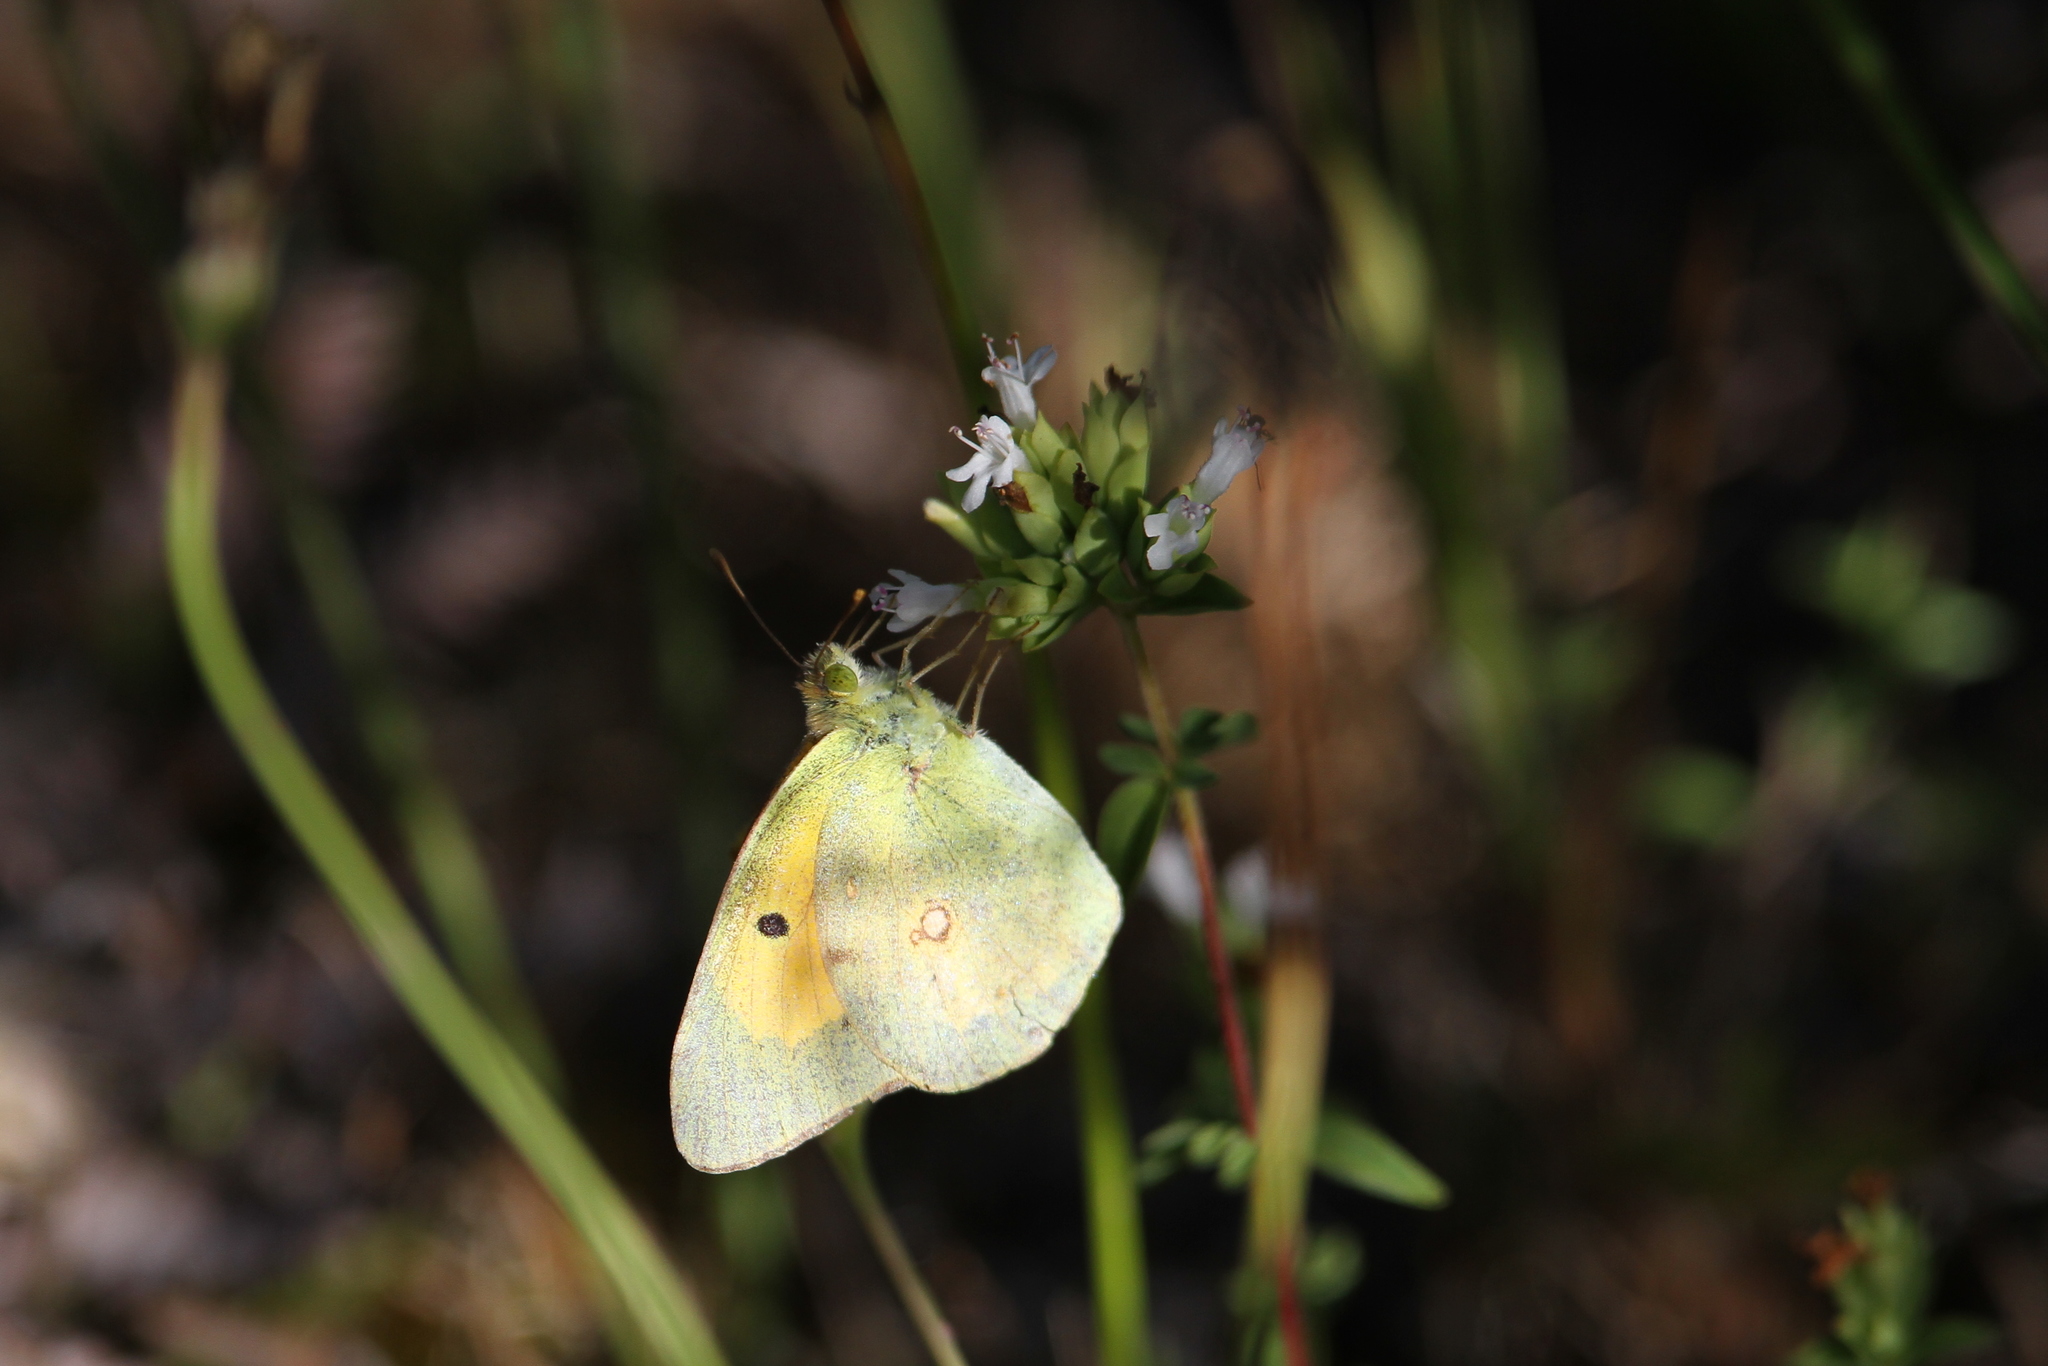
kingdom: Animalia
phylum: Arthropoda
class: Insecta
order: Lepidoptera
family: Pieridae
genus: Colias
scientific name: Colias croceus
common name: Clouded yellow
